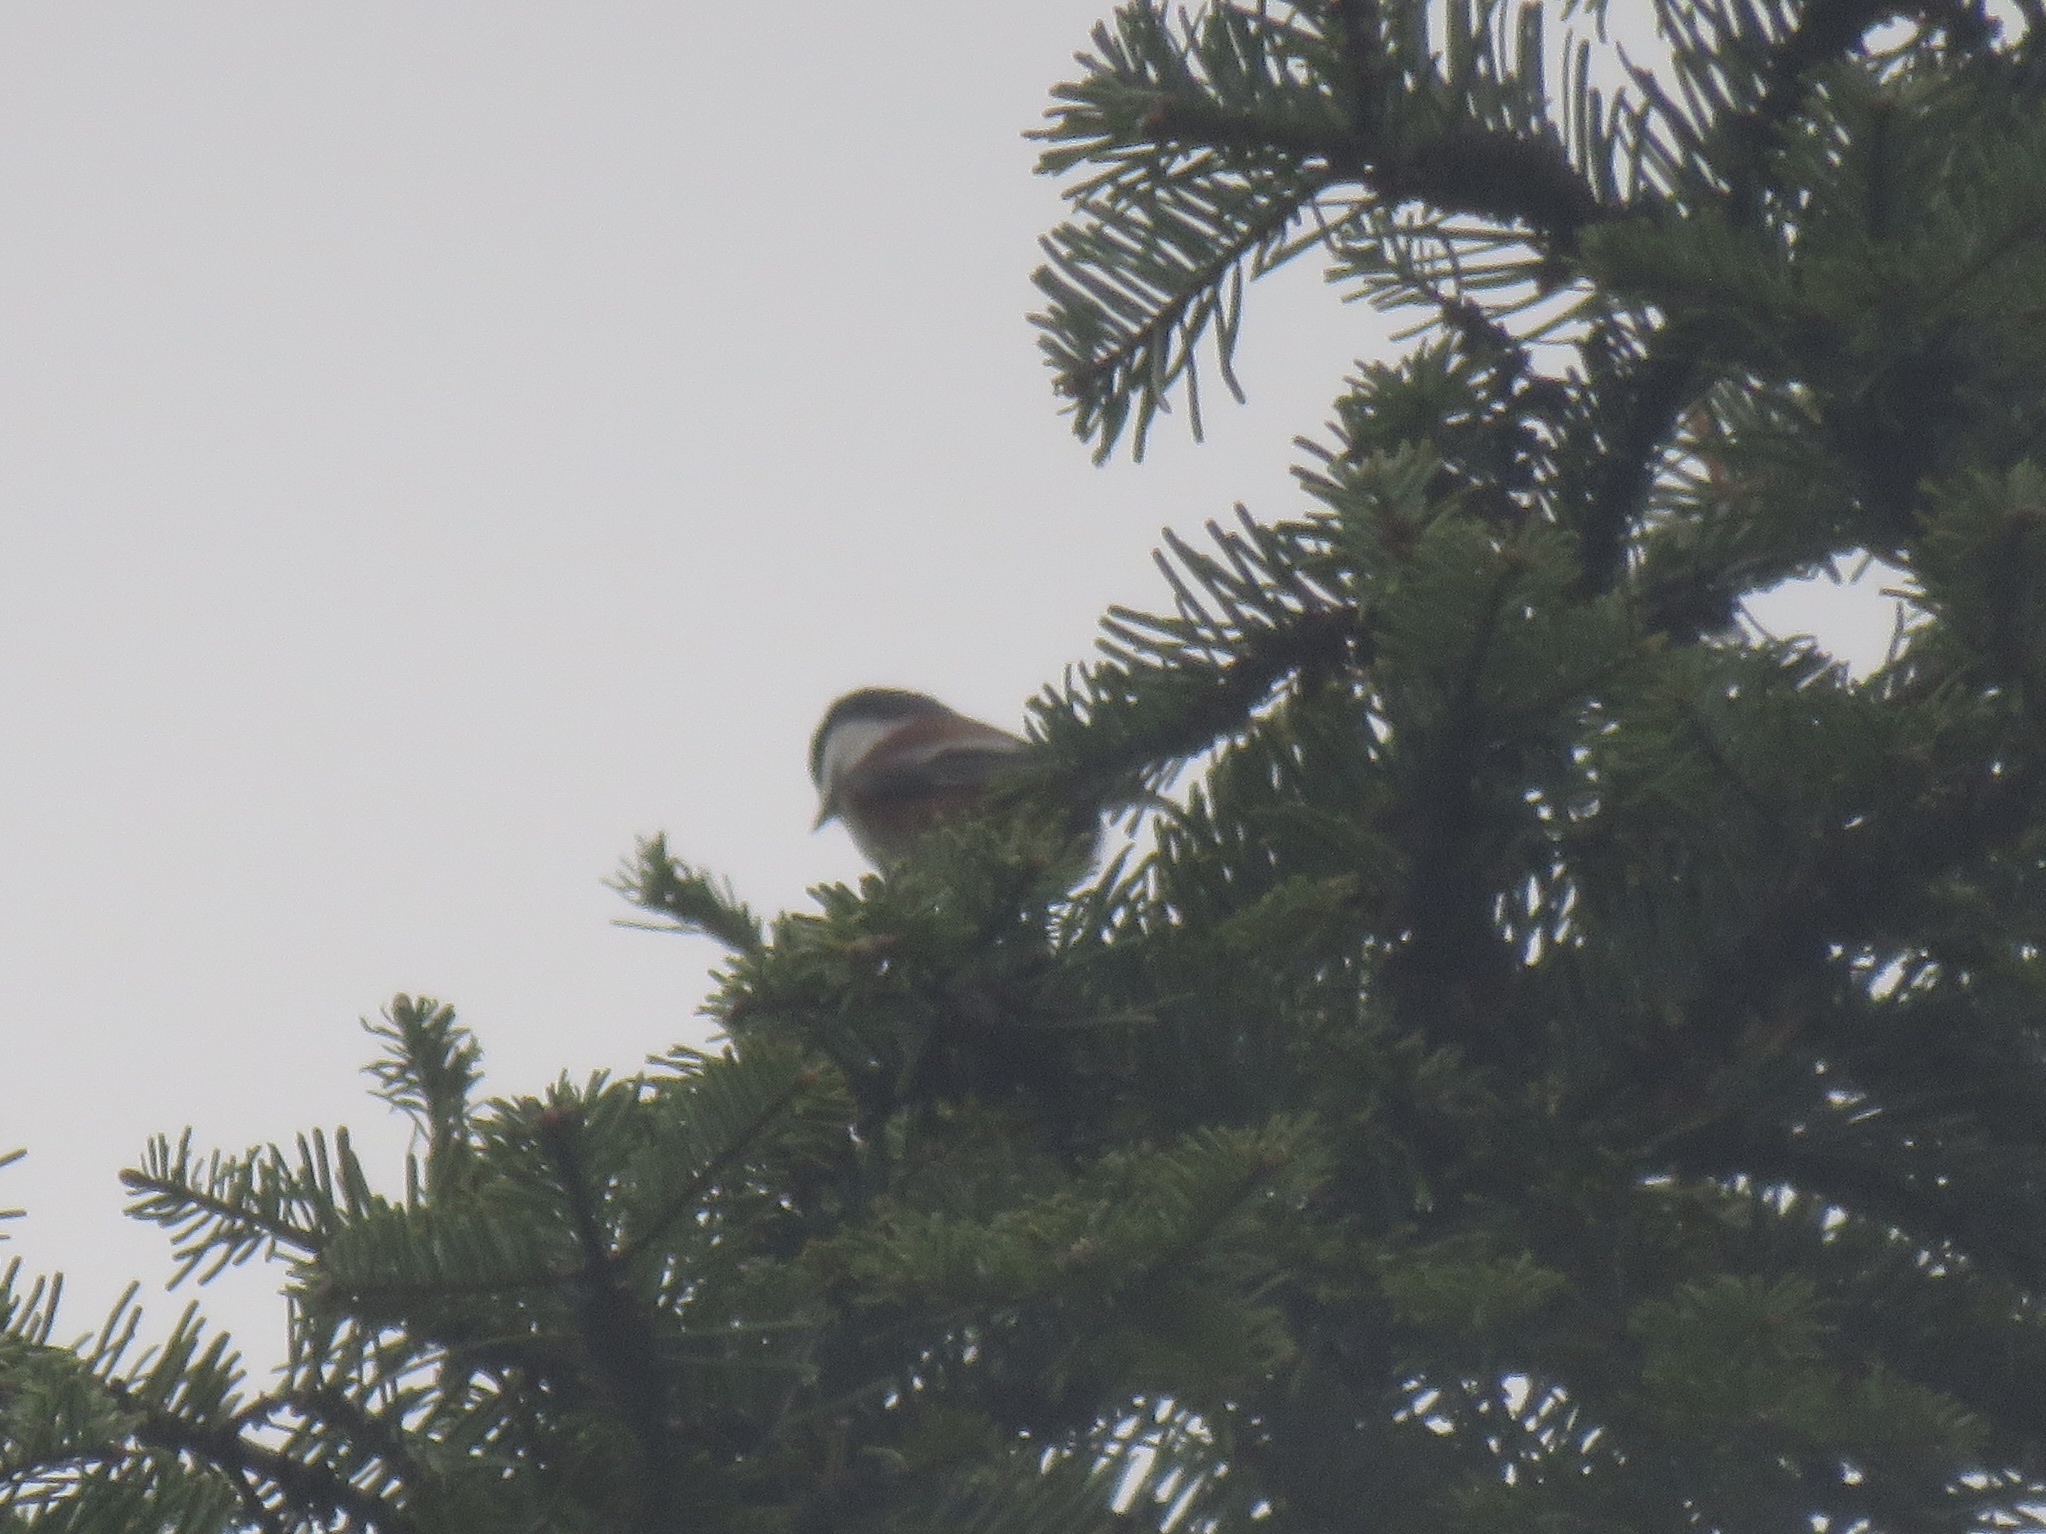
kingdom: Animalia
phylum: Chordata
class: Aves
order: Passeriformes
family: Paridae
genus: Poecile
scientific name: Poecile rufescens
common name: Chestnut-backed chickadee
